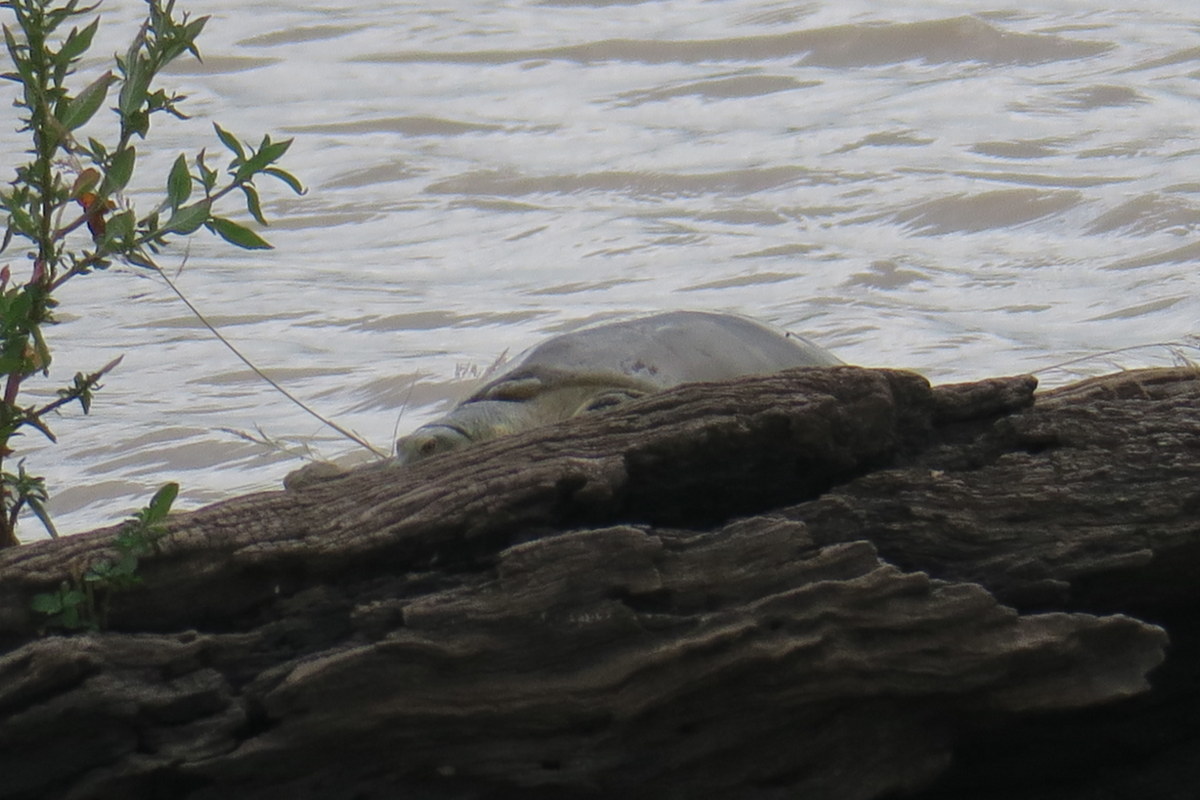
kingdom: Animalia
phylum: Chordata
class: Testudines
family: Trionychidae
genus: Lissemys
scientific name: Lissemys ceylonensis
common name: Sri lankan flapshell turtle
